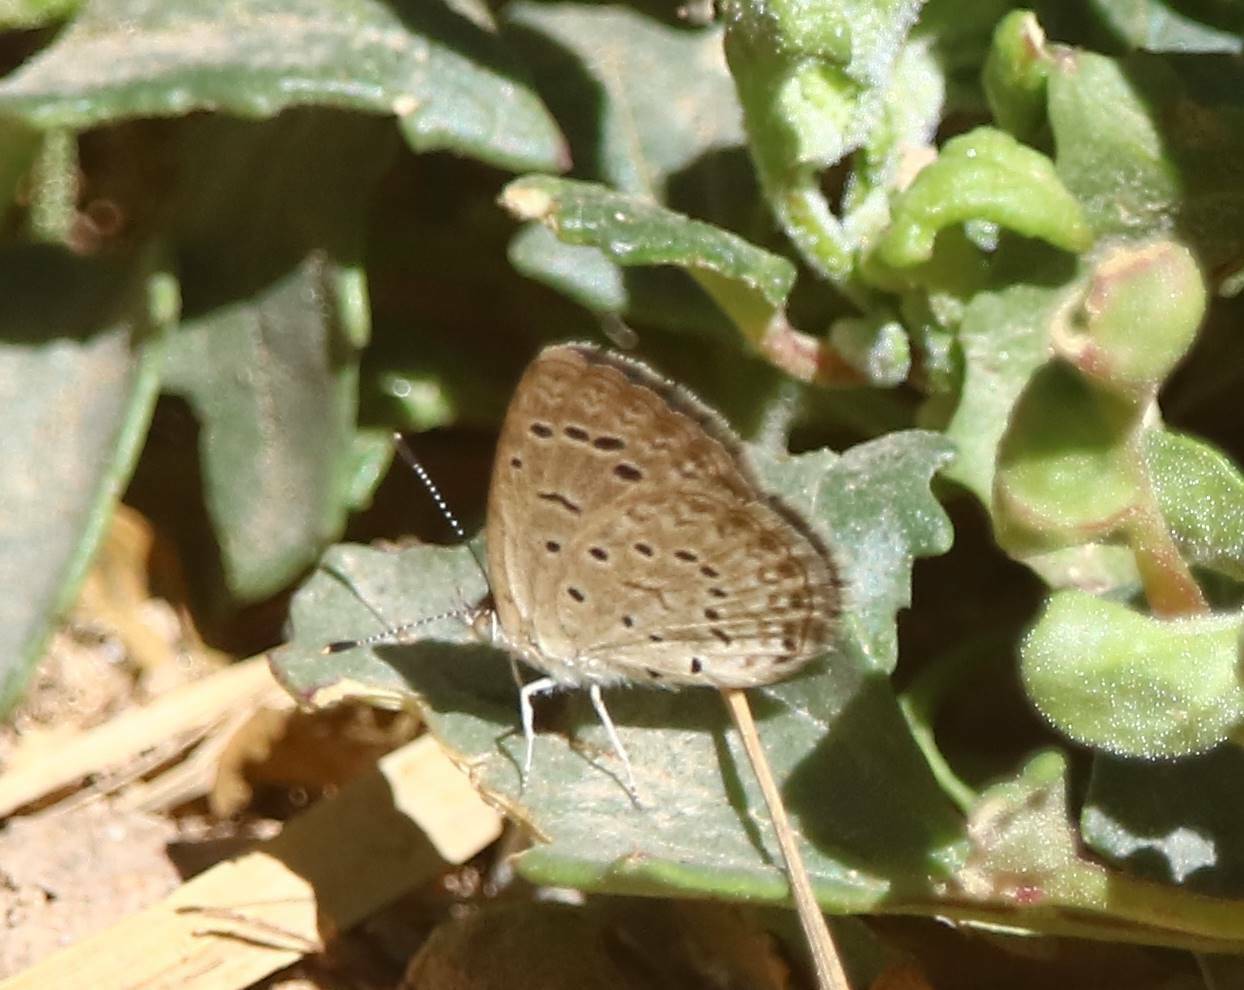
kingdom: Animalia
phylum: Arthropoda
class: Insecta
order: Lepidoptera
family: Lycaenidae
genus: Zizeeria
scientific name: Zizeeria knysna
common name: African grass blue
